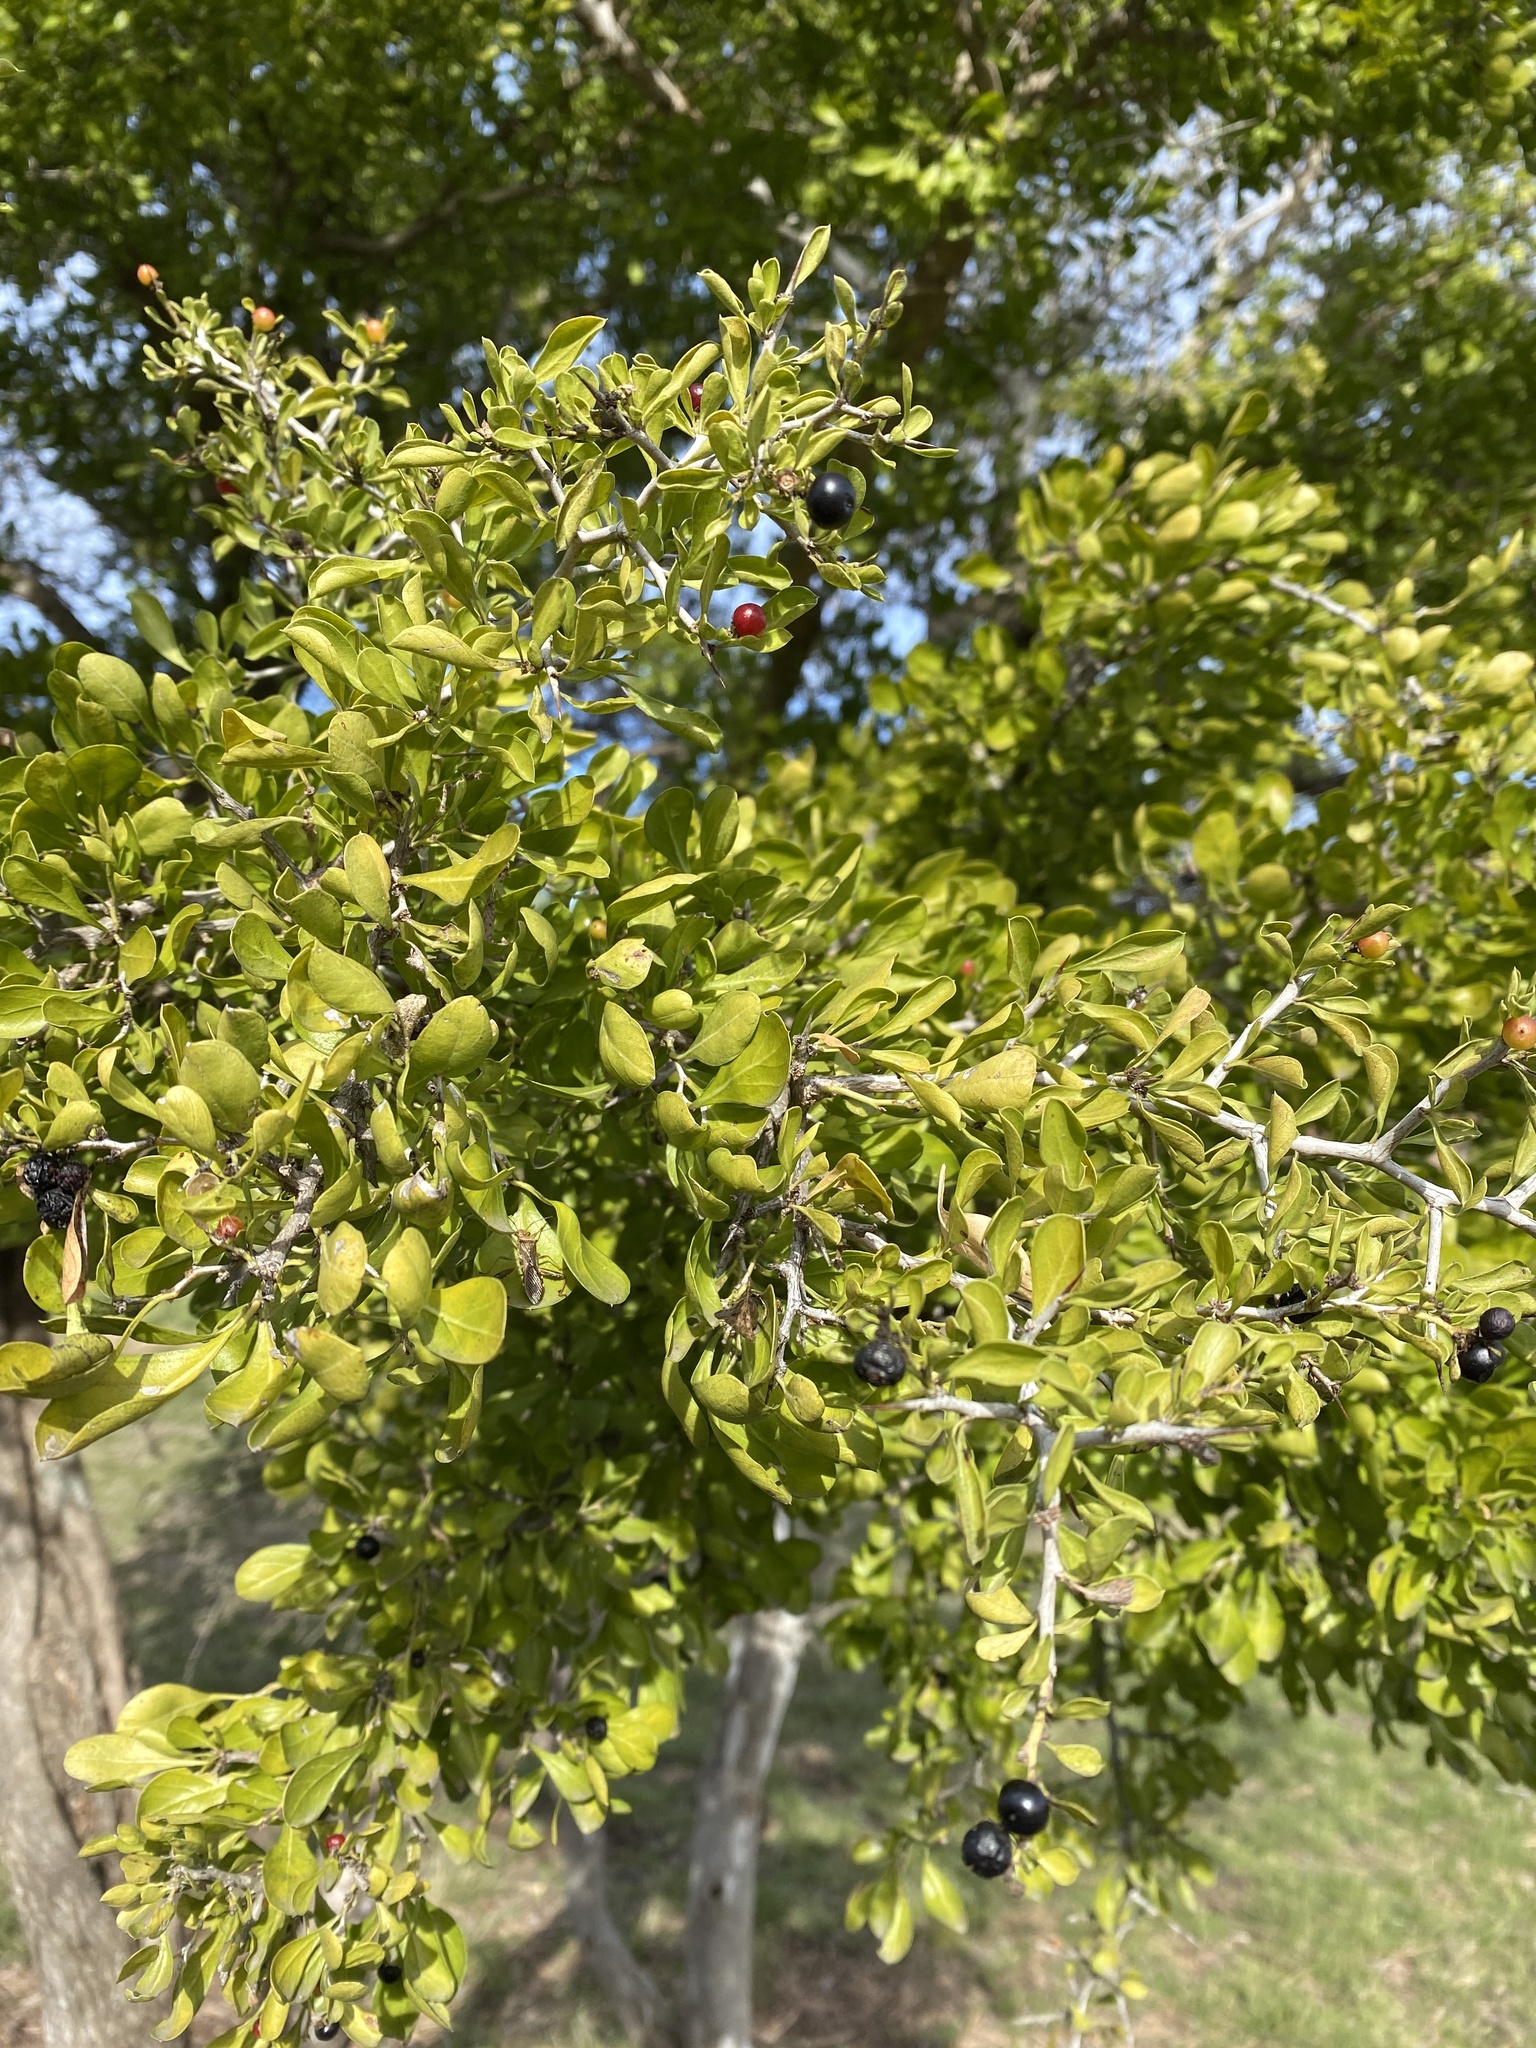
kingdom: Plantae
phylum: Tracheophyta
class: Magnoliopsida
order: Rosales
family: Rhamnaceae
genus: Condalia
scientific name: Condalia hookeri
